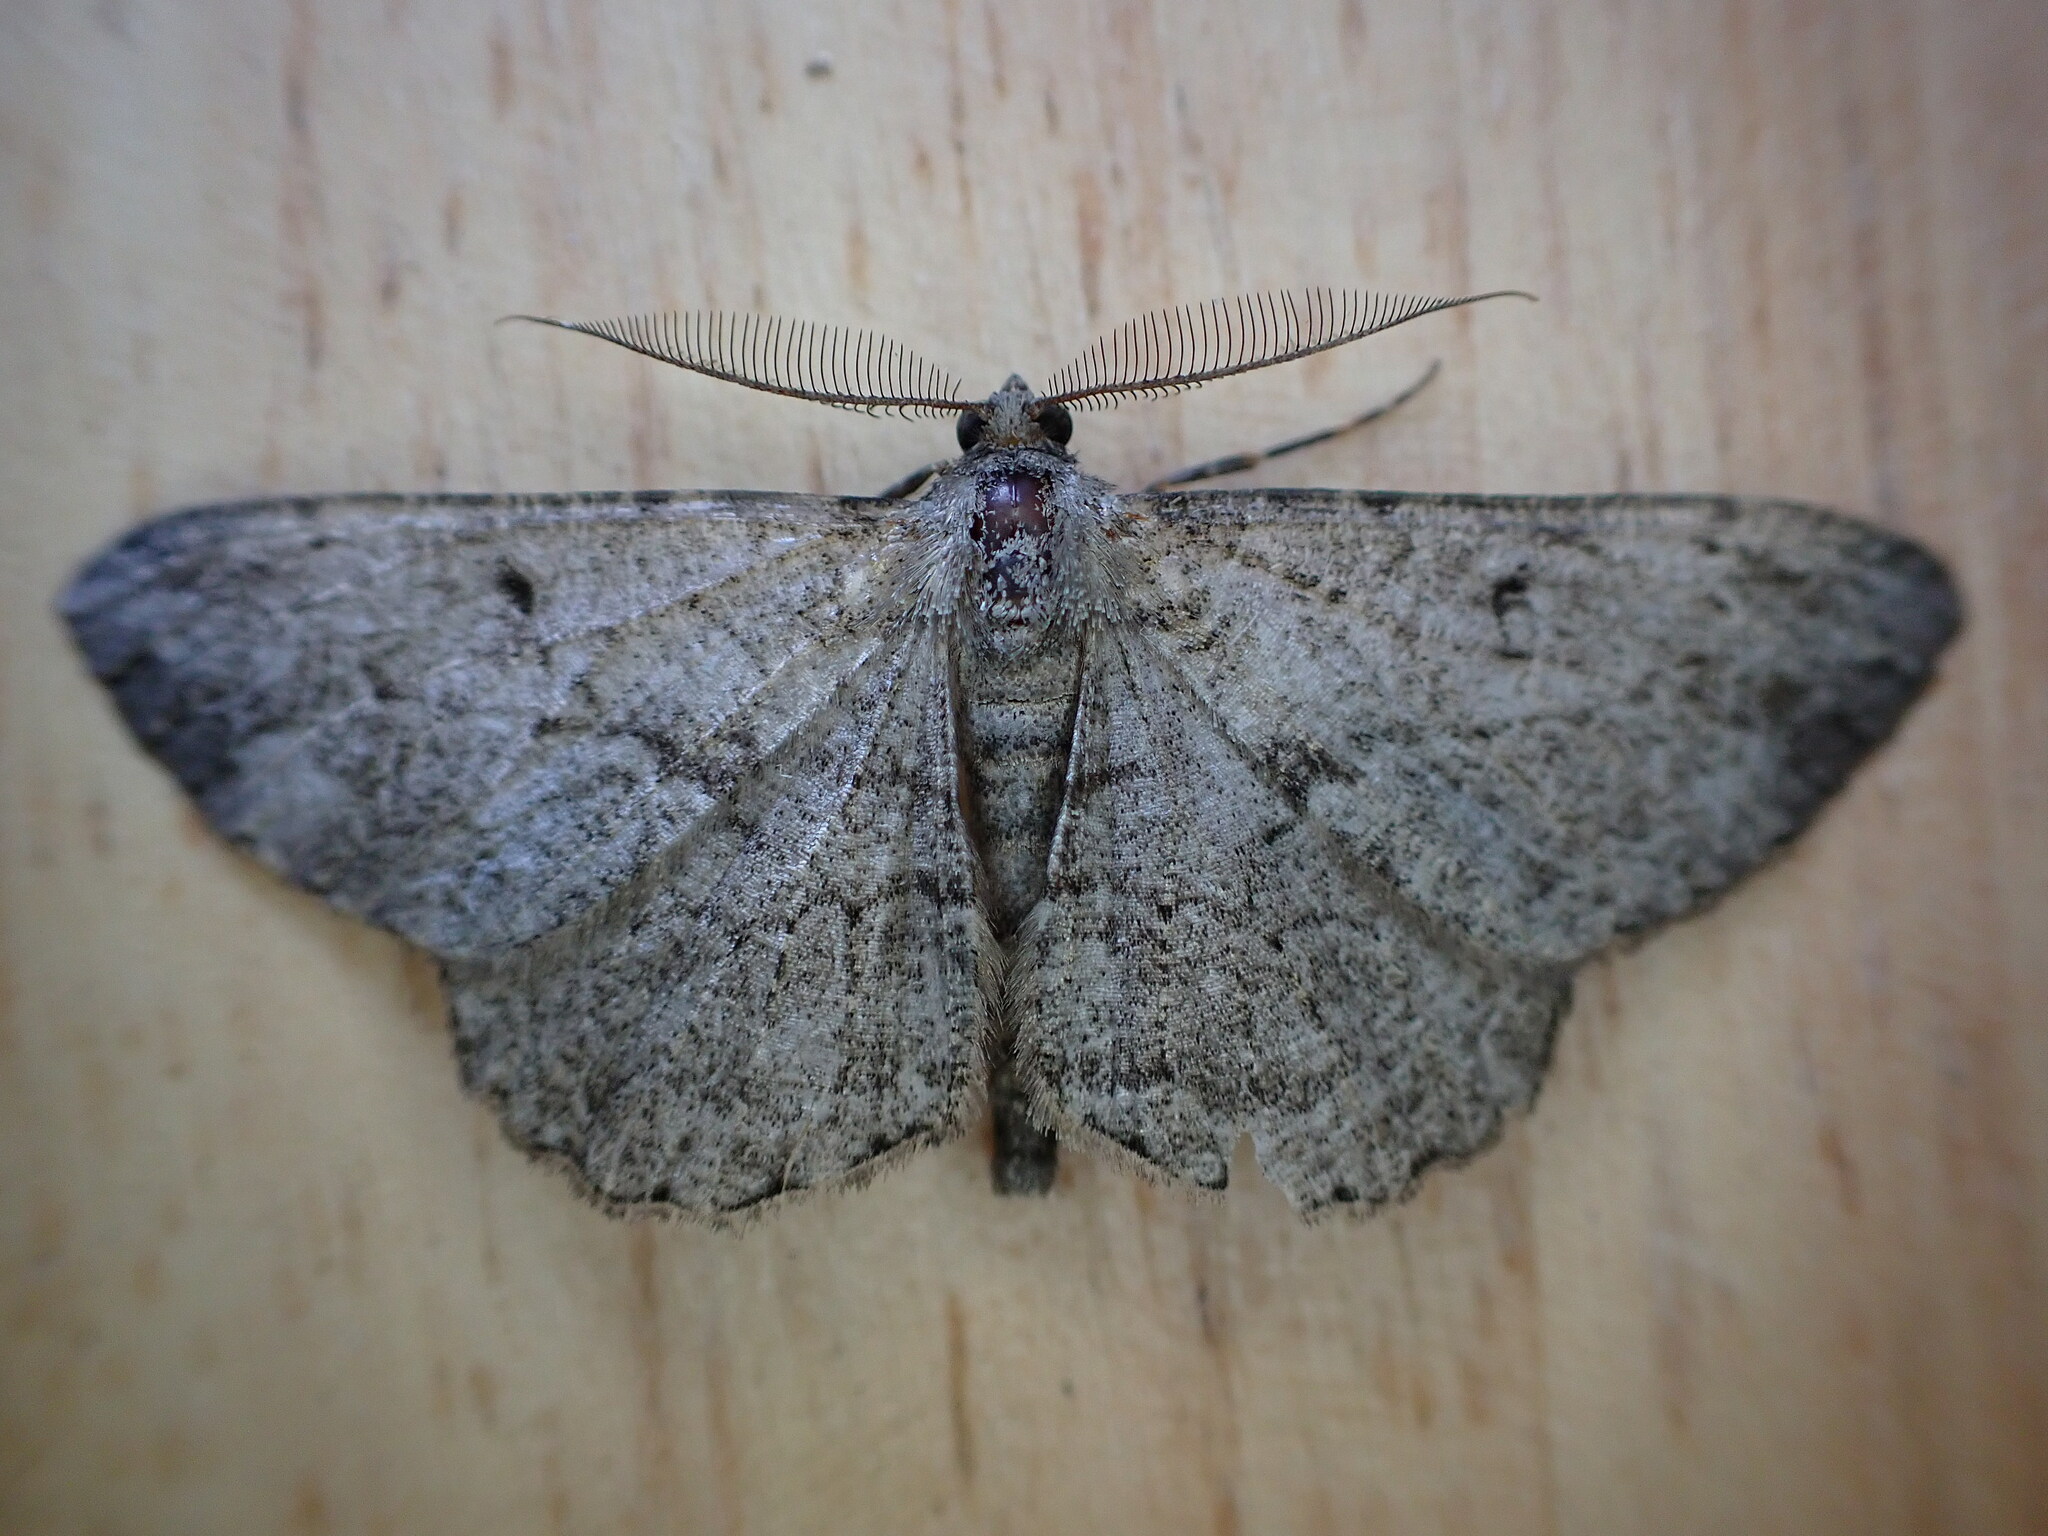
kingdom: Animalia
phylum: Arthropoda
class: Insecta
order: Lepidoptera
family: Geometridae
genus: Peribatodes
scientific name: Peribatodes rhomboidaria
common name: Willow beauty
